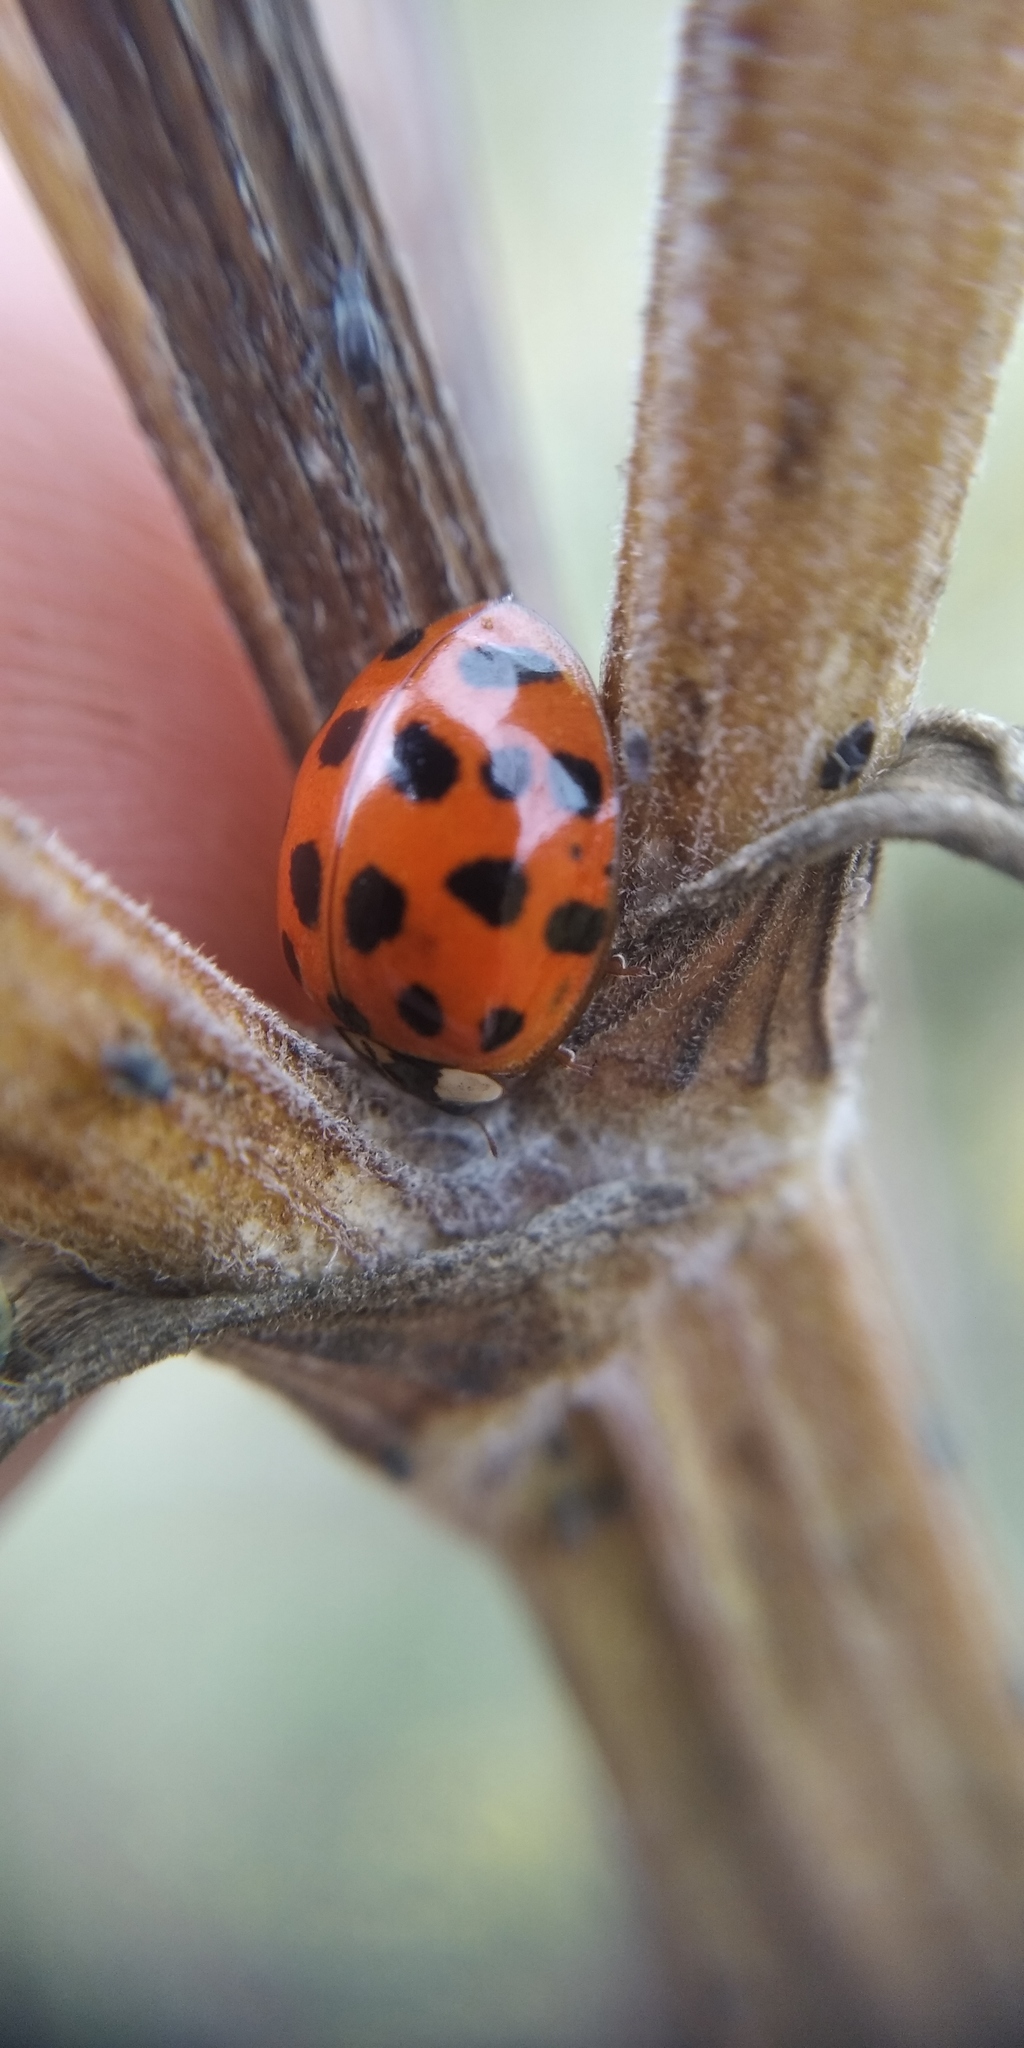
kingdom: Animalia
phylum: Arthropoda
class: Insecta
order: Coleoptera
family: Coccinellidae
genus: Harmonia
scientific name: Harmonia axyridis
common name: Harlequin ladybird
